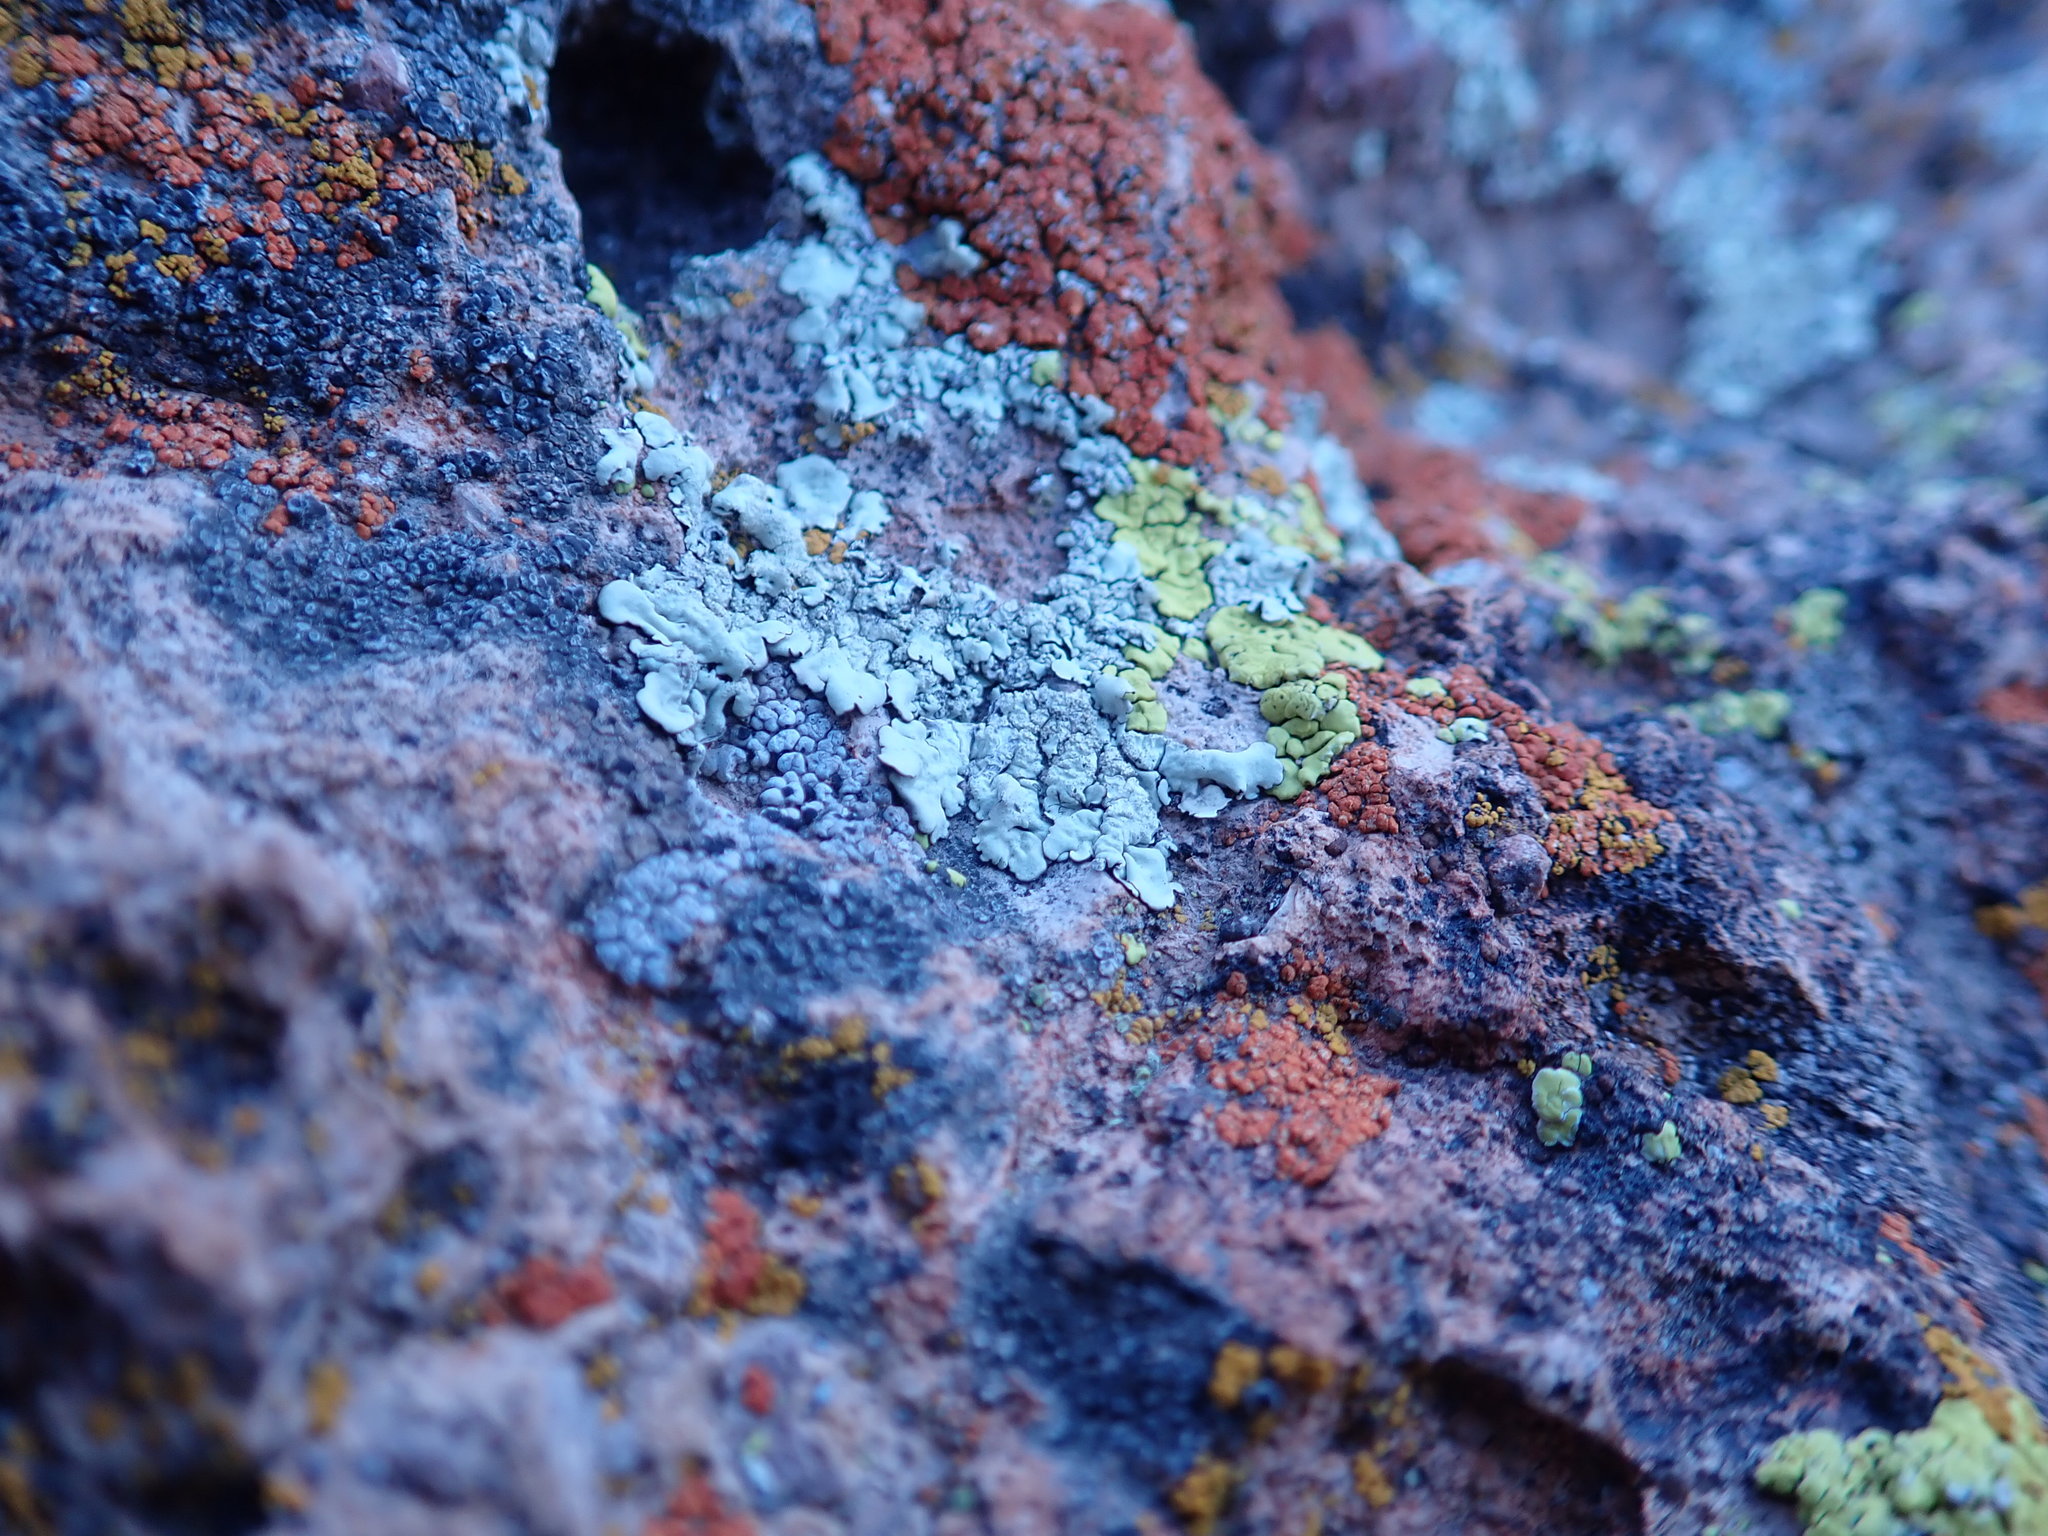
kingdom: Fungi
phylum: Ascomycota
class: Lecanoromycetes
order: Acarosporales
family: Acarosporaceae
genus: Acarospora
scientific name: Acarospora socialis
